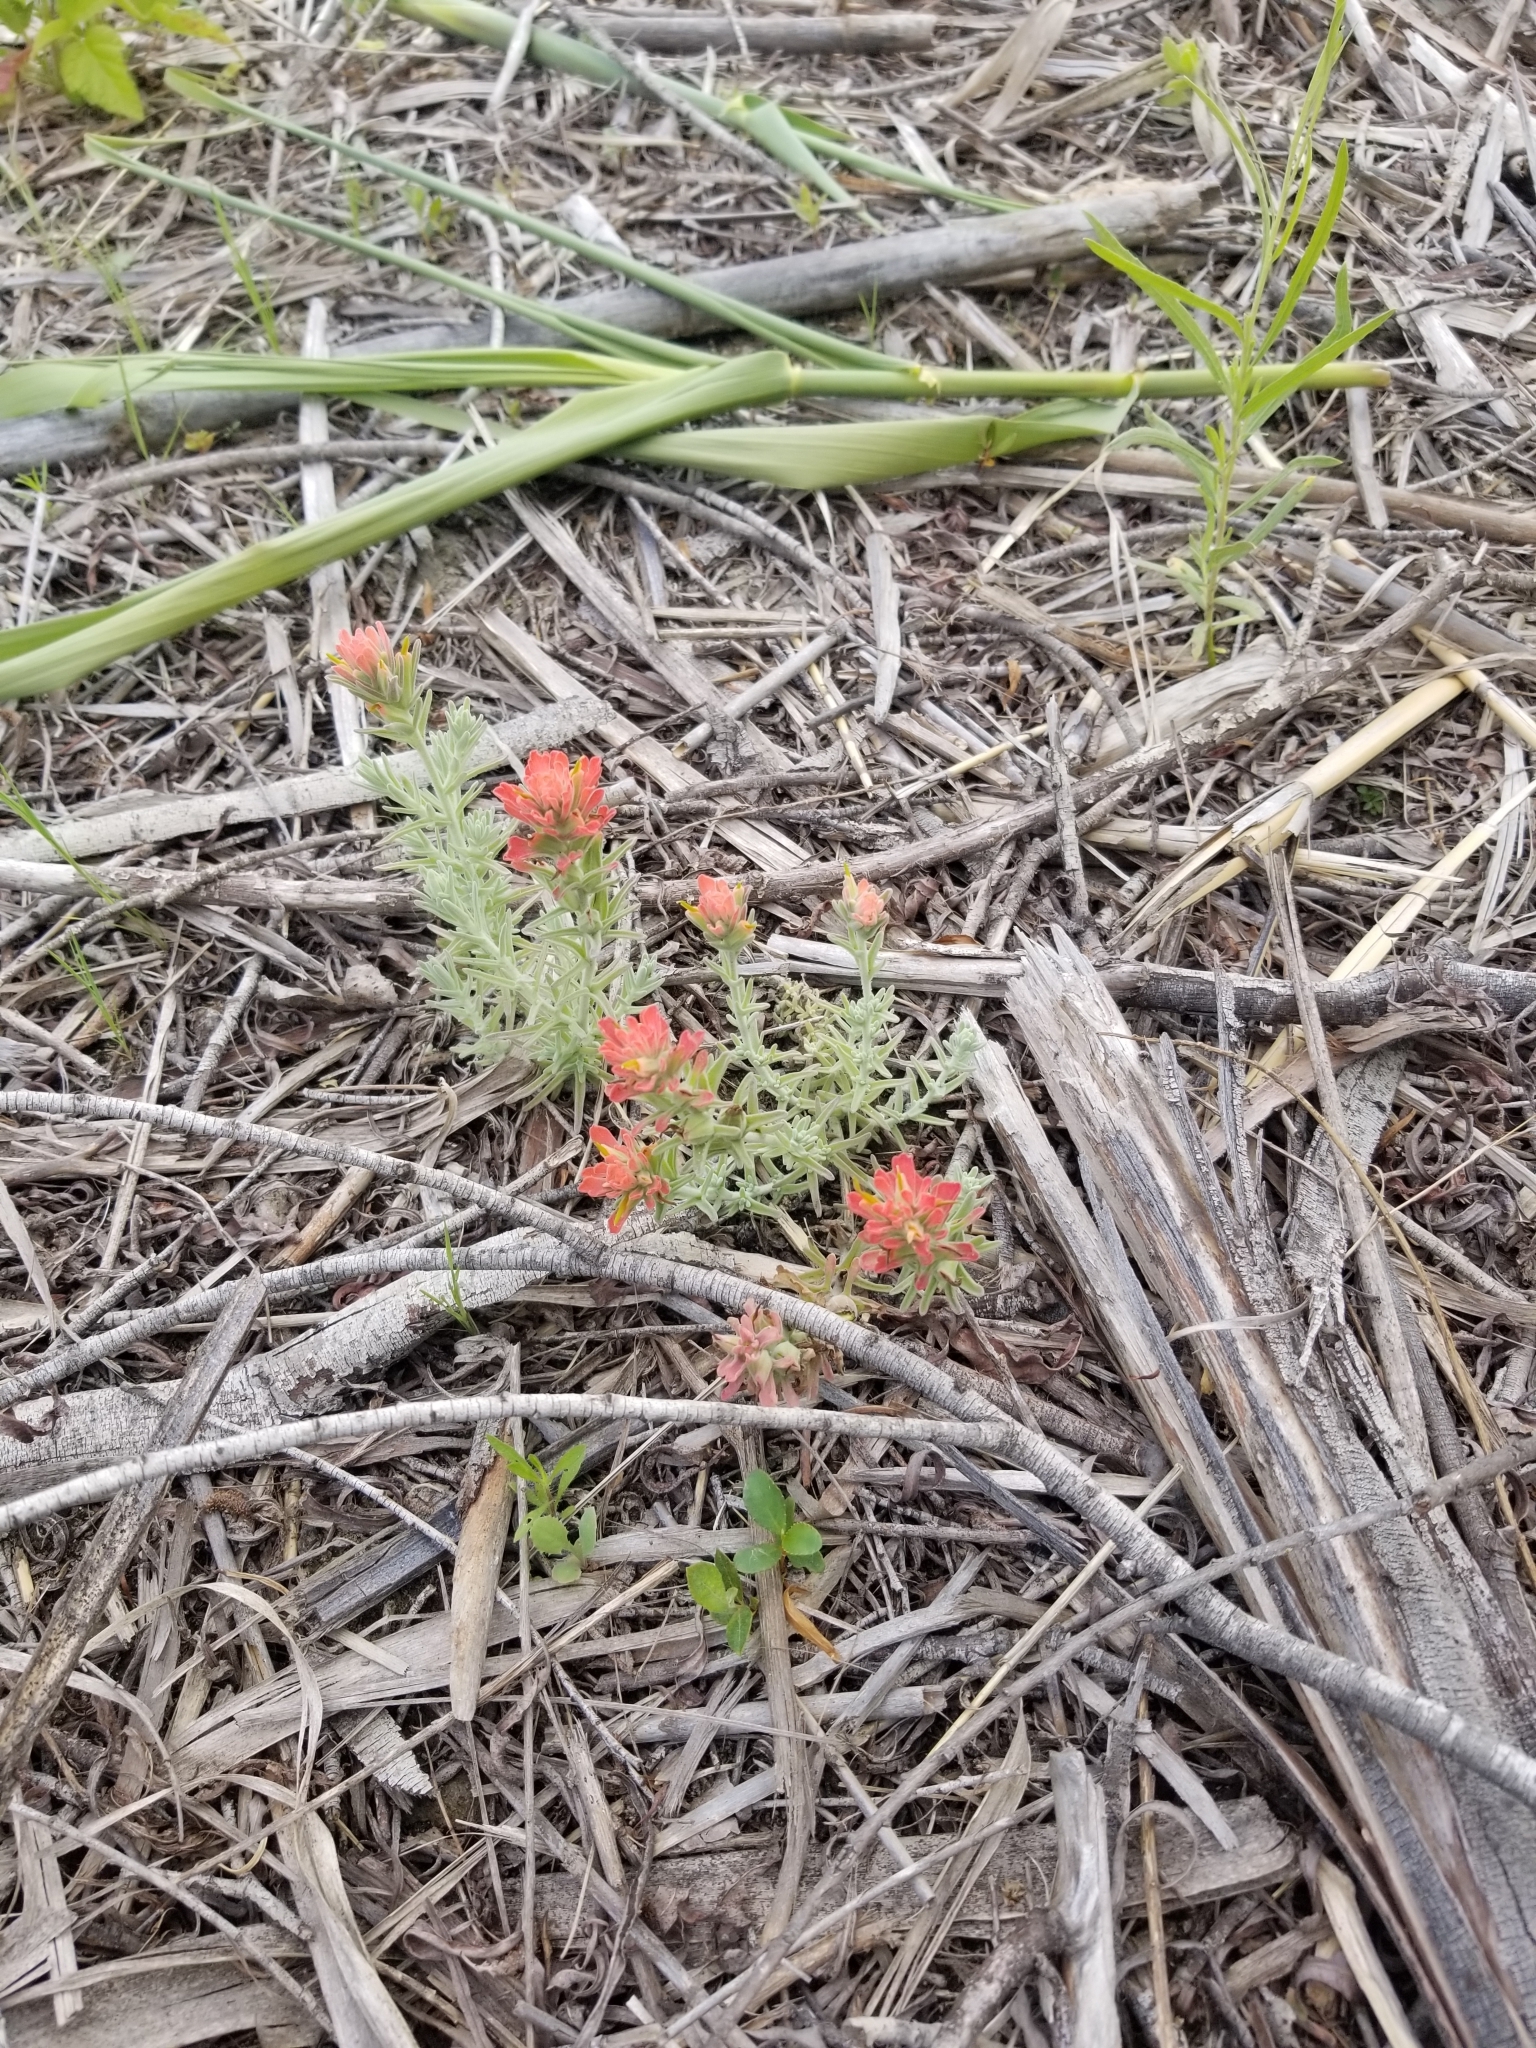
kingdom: Plantae
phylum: Tracheophyta
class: Magnoliopsida
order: Lamiales
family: Orobanchaceae
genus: Castilleja
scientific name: Castilleja foliolosa
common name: Woolly indian paintbrush
